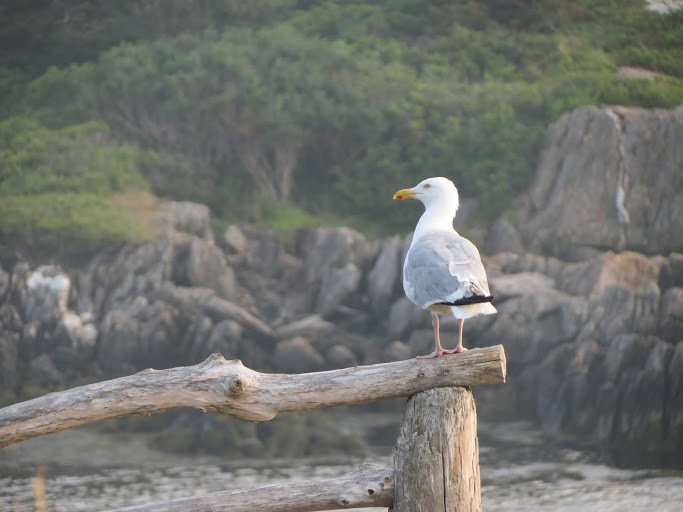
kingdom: Animalia
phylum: Chordata
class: Aves
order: Charadriiformes
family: Laridae
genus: Larus
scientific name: Larus argentatus
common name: Herring gull
